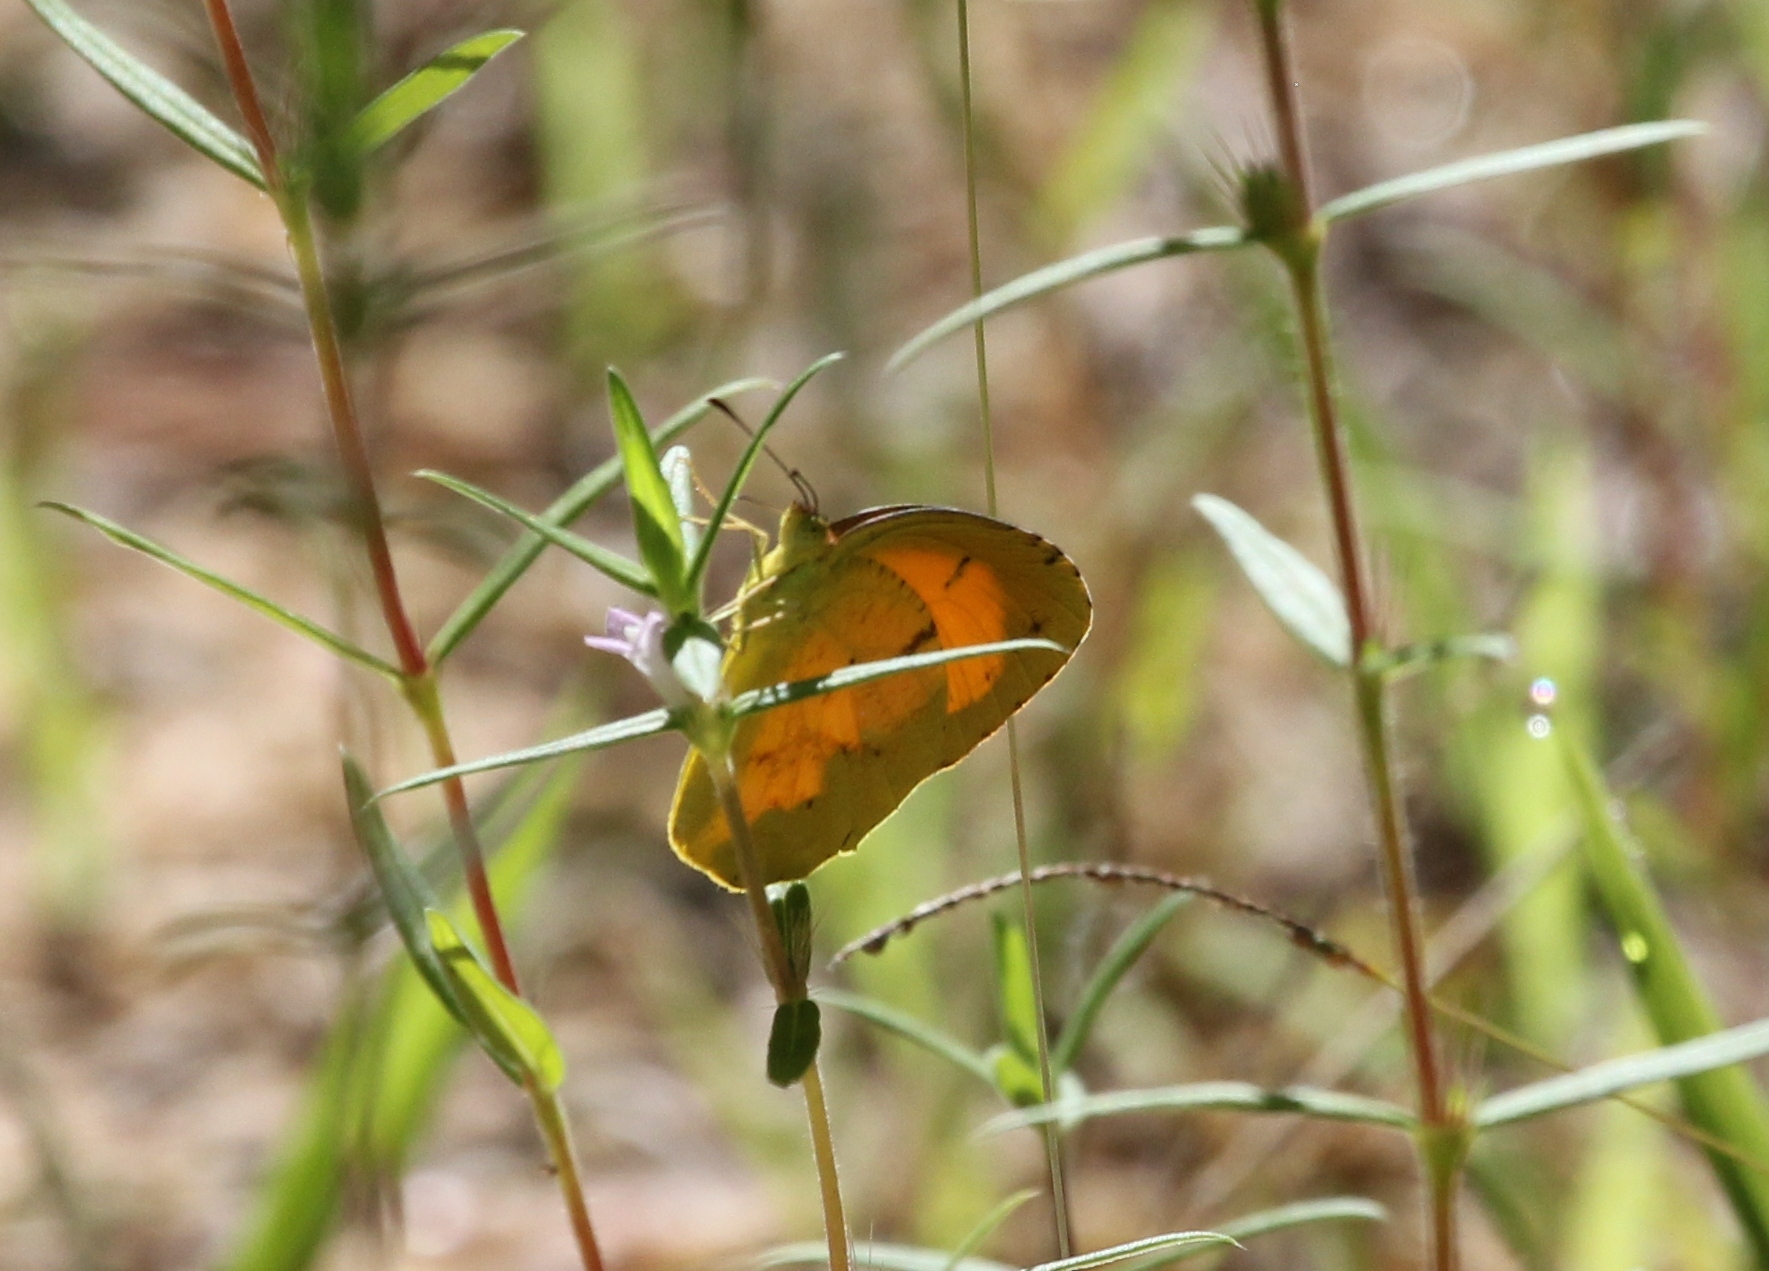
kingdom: Animalia
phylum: Arthropoda
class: Insecta
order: Lepidoptera
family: Pieridae
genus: Abaeis
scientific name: Abaeis nicippe
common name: Sleepy orange
